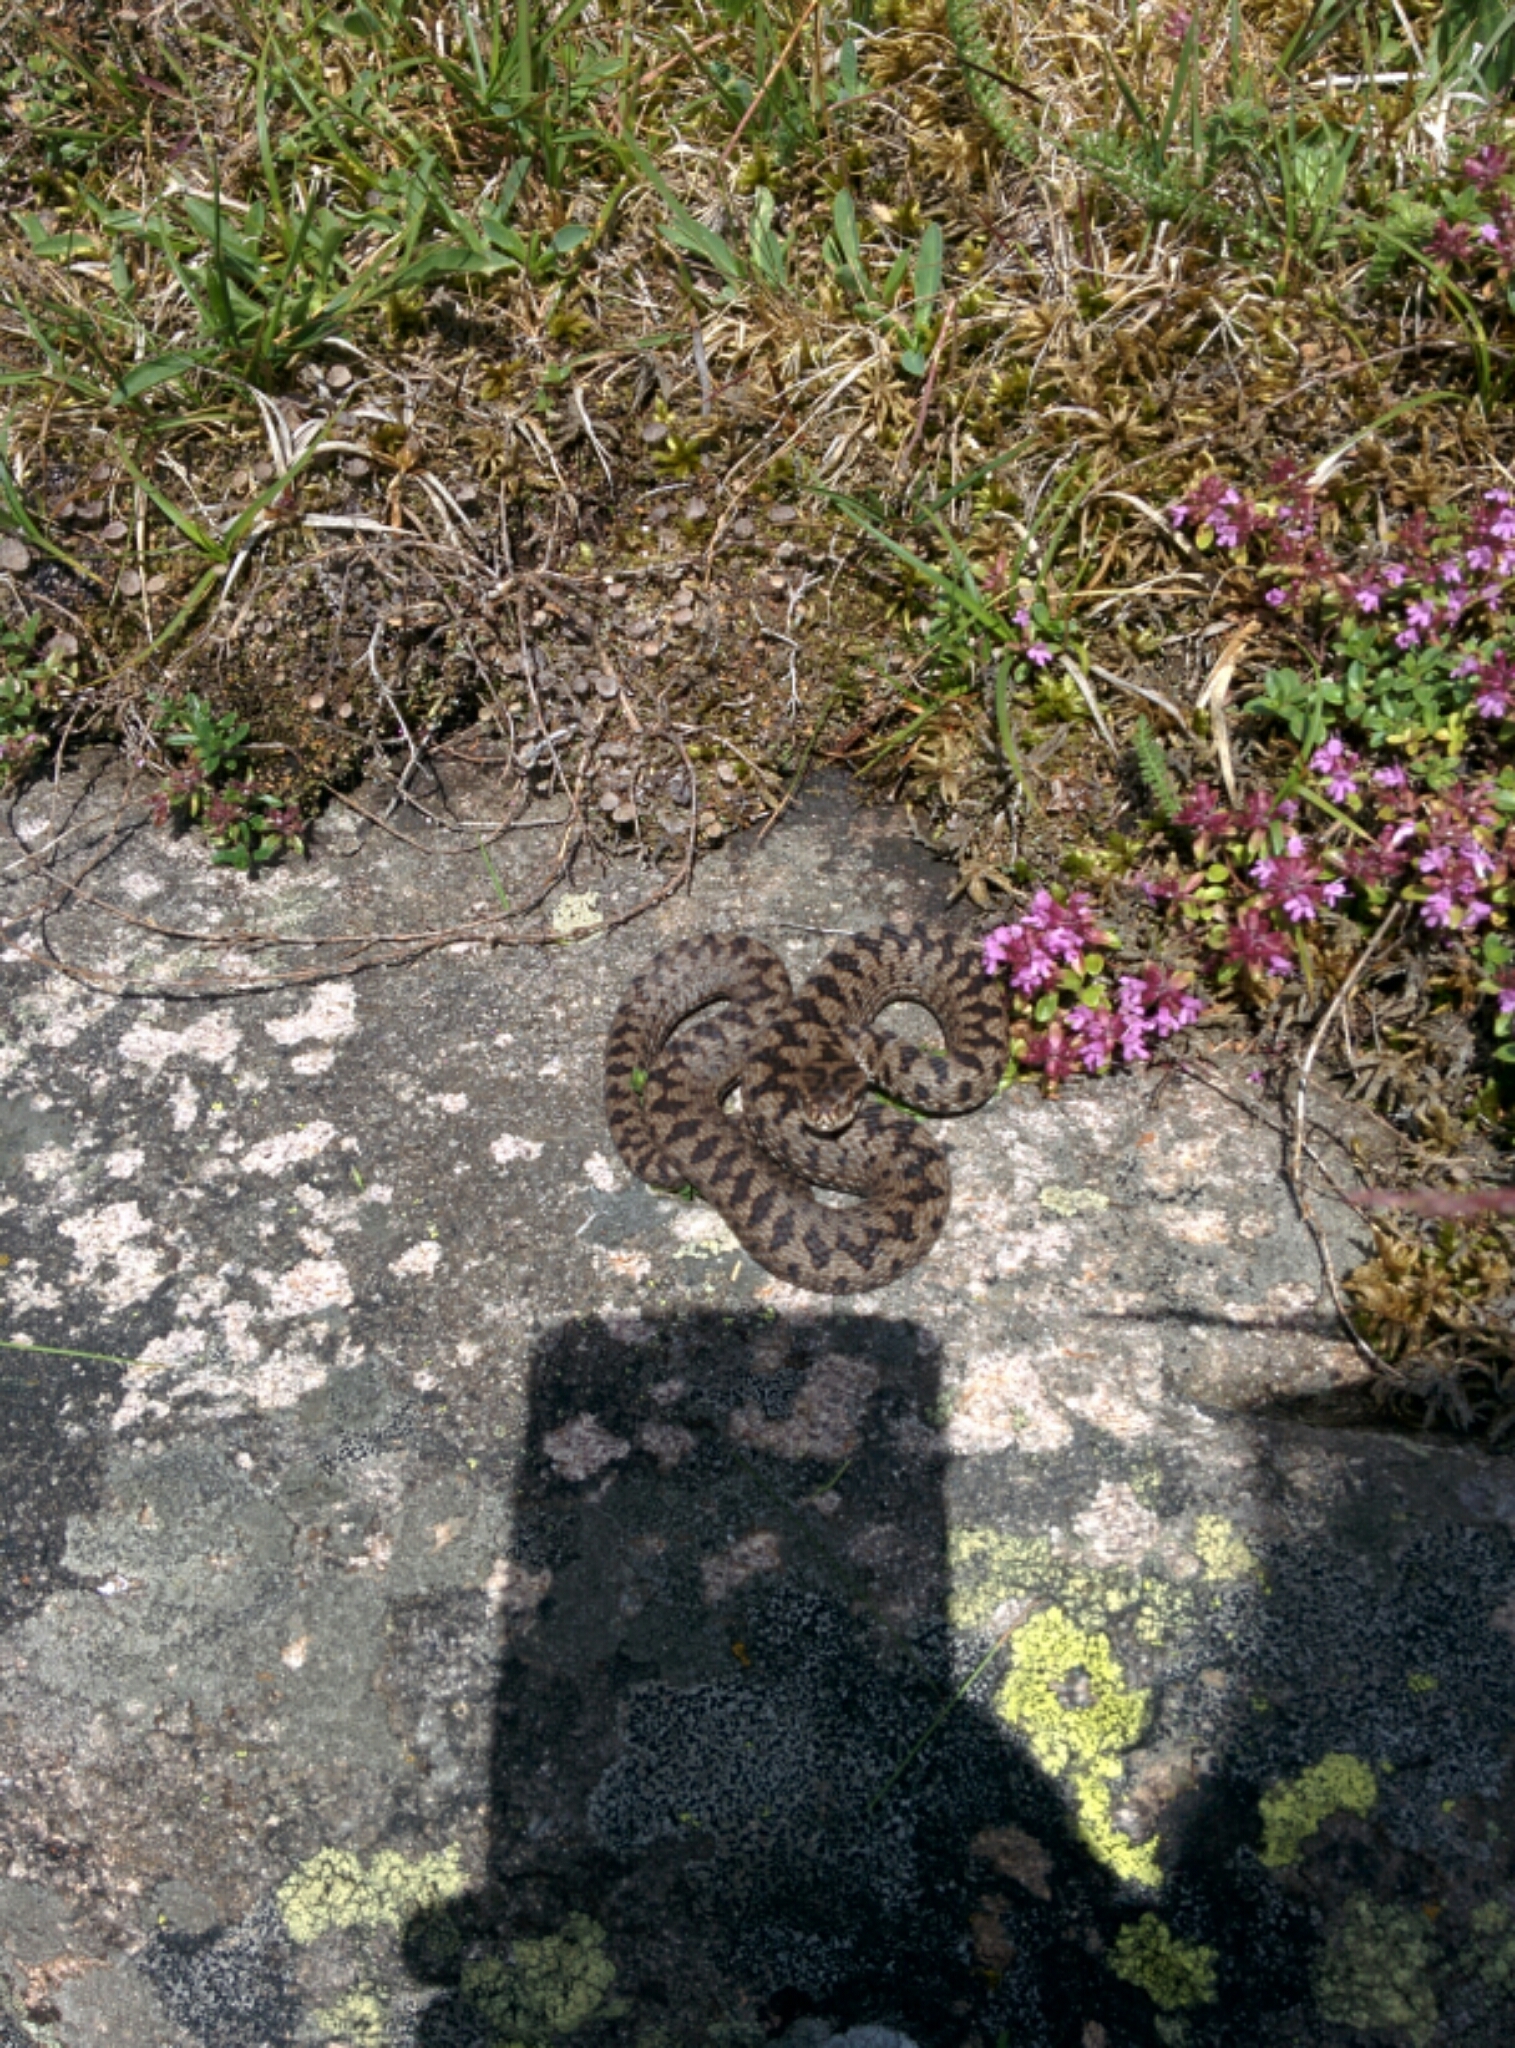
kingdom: Animalia
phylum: Chordata
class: Squamata
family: Viperidae
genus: Vipera
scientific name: Vipera berus
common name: Adder
